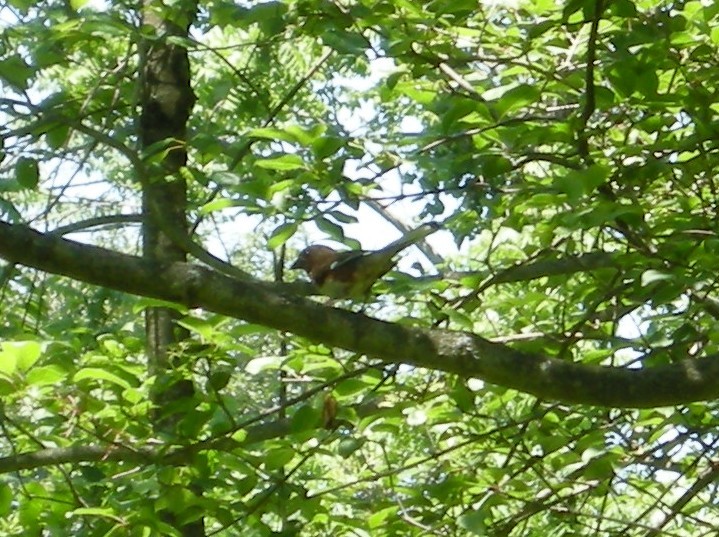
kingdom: Animalia
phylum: Chordata
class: Aves
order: Passeriformes
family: Passerellidae
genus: Pipilo
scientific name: Pipilo erythrophthalmus
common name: Eastern towhee
